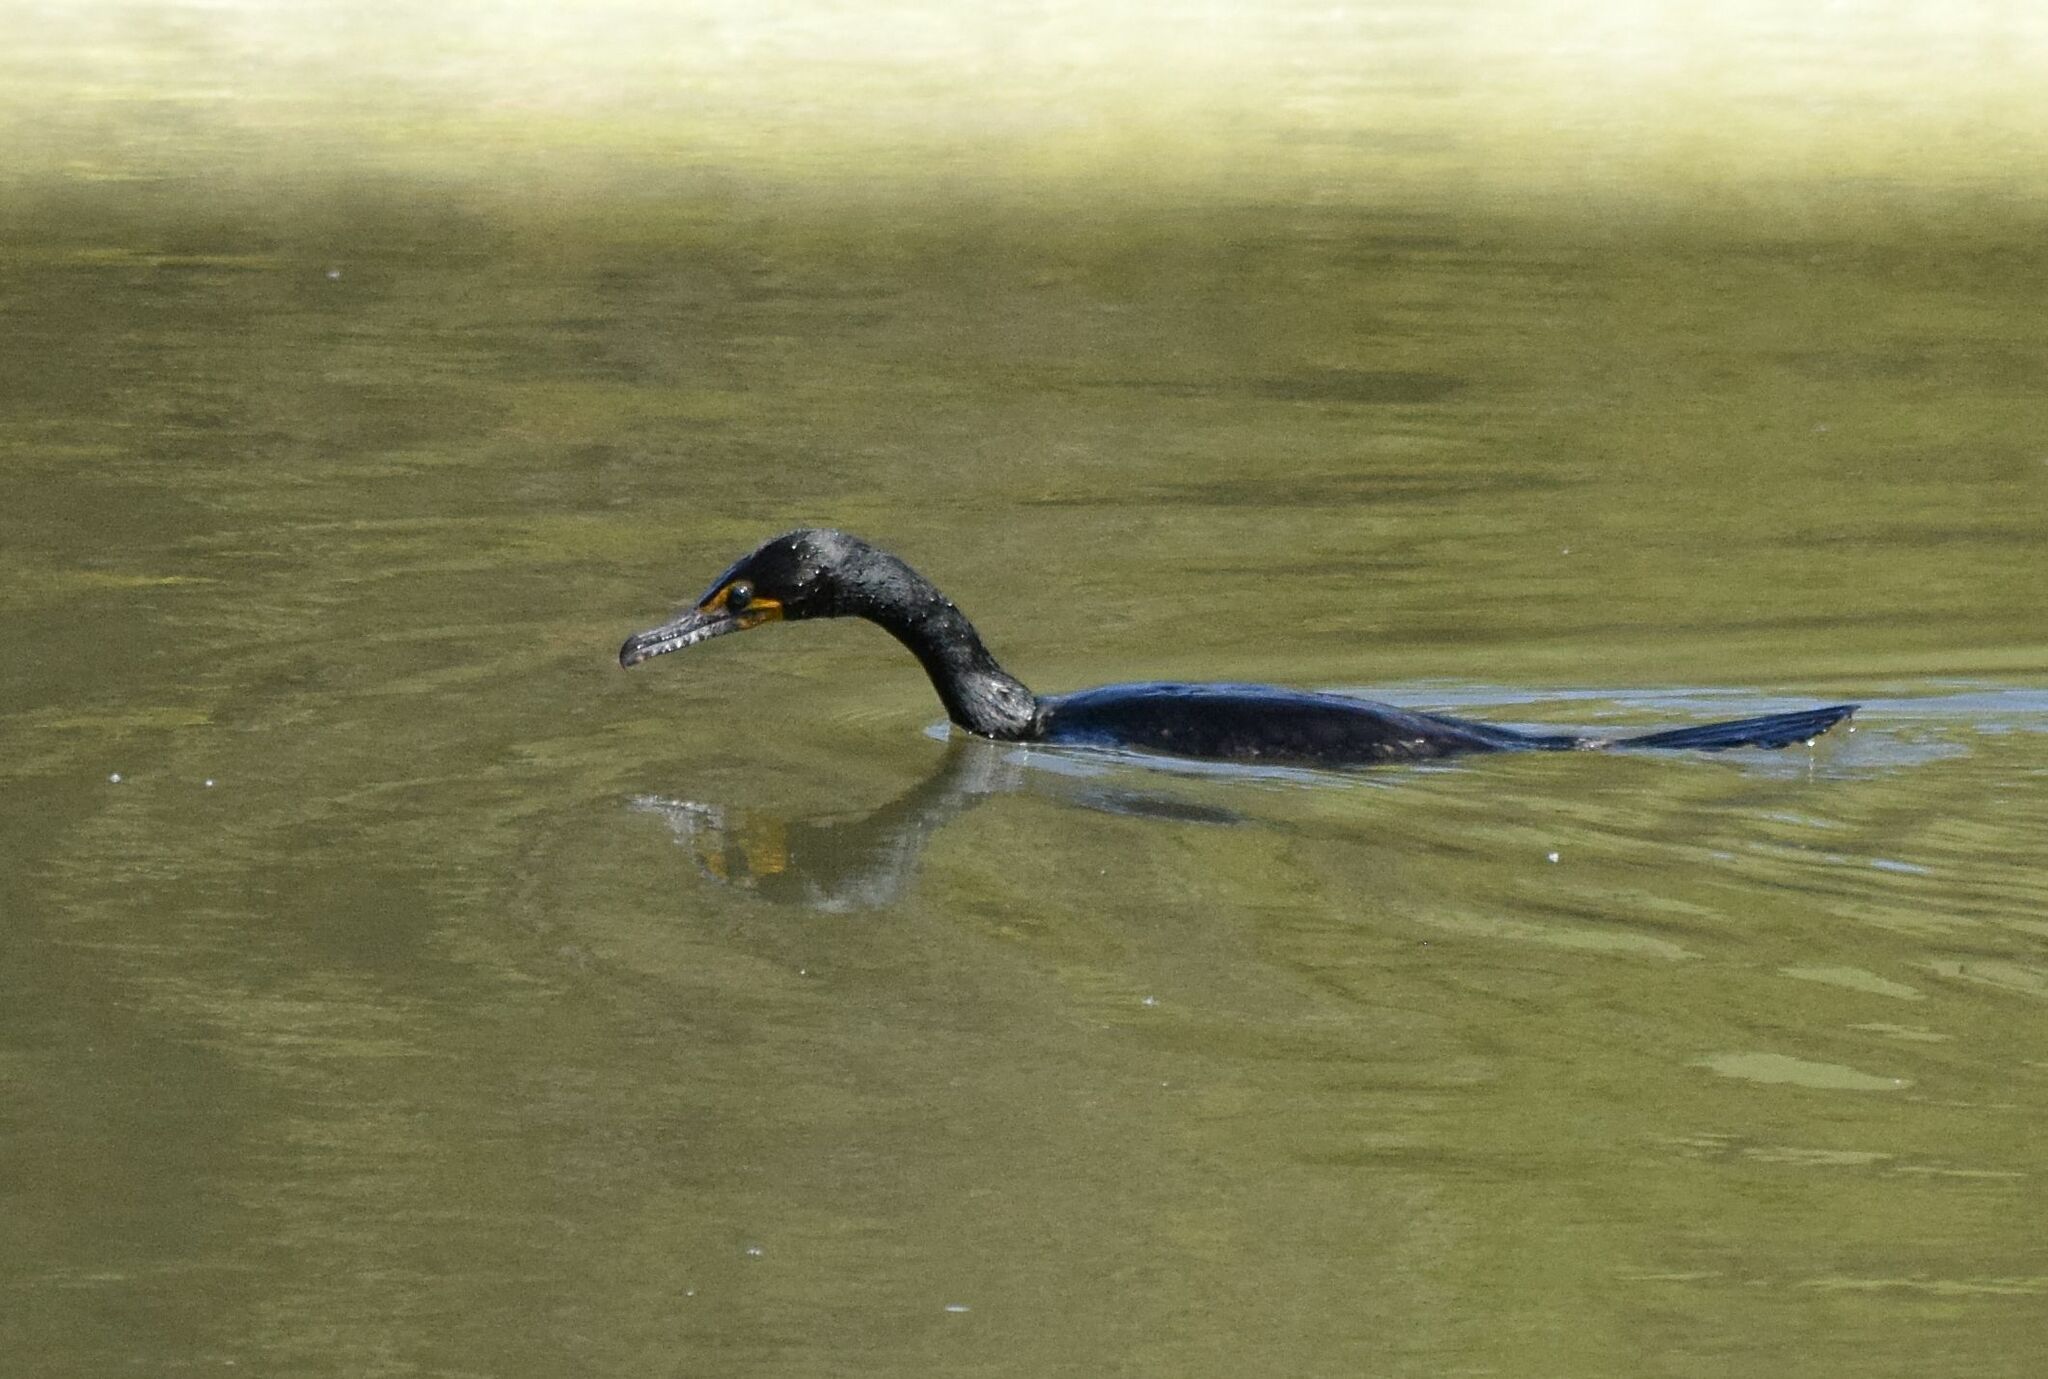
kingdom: Animalia
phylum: Chordata
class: Aves
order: Suliformes
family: Phalacrocoracidae
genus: Phalacrocorax
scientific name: Phalacrocorax auritus
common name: Double-crested cormorant
